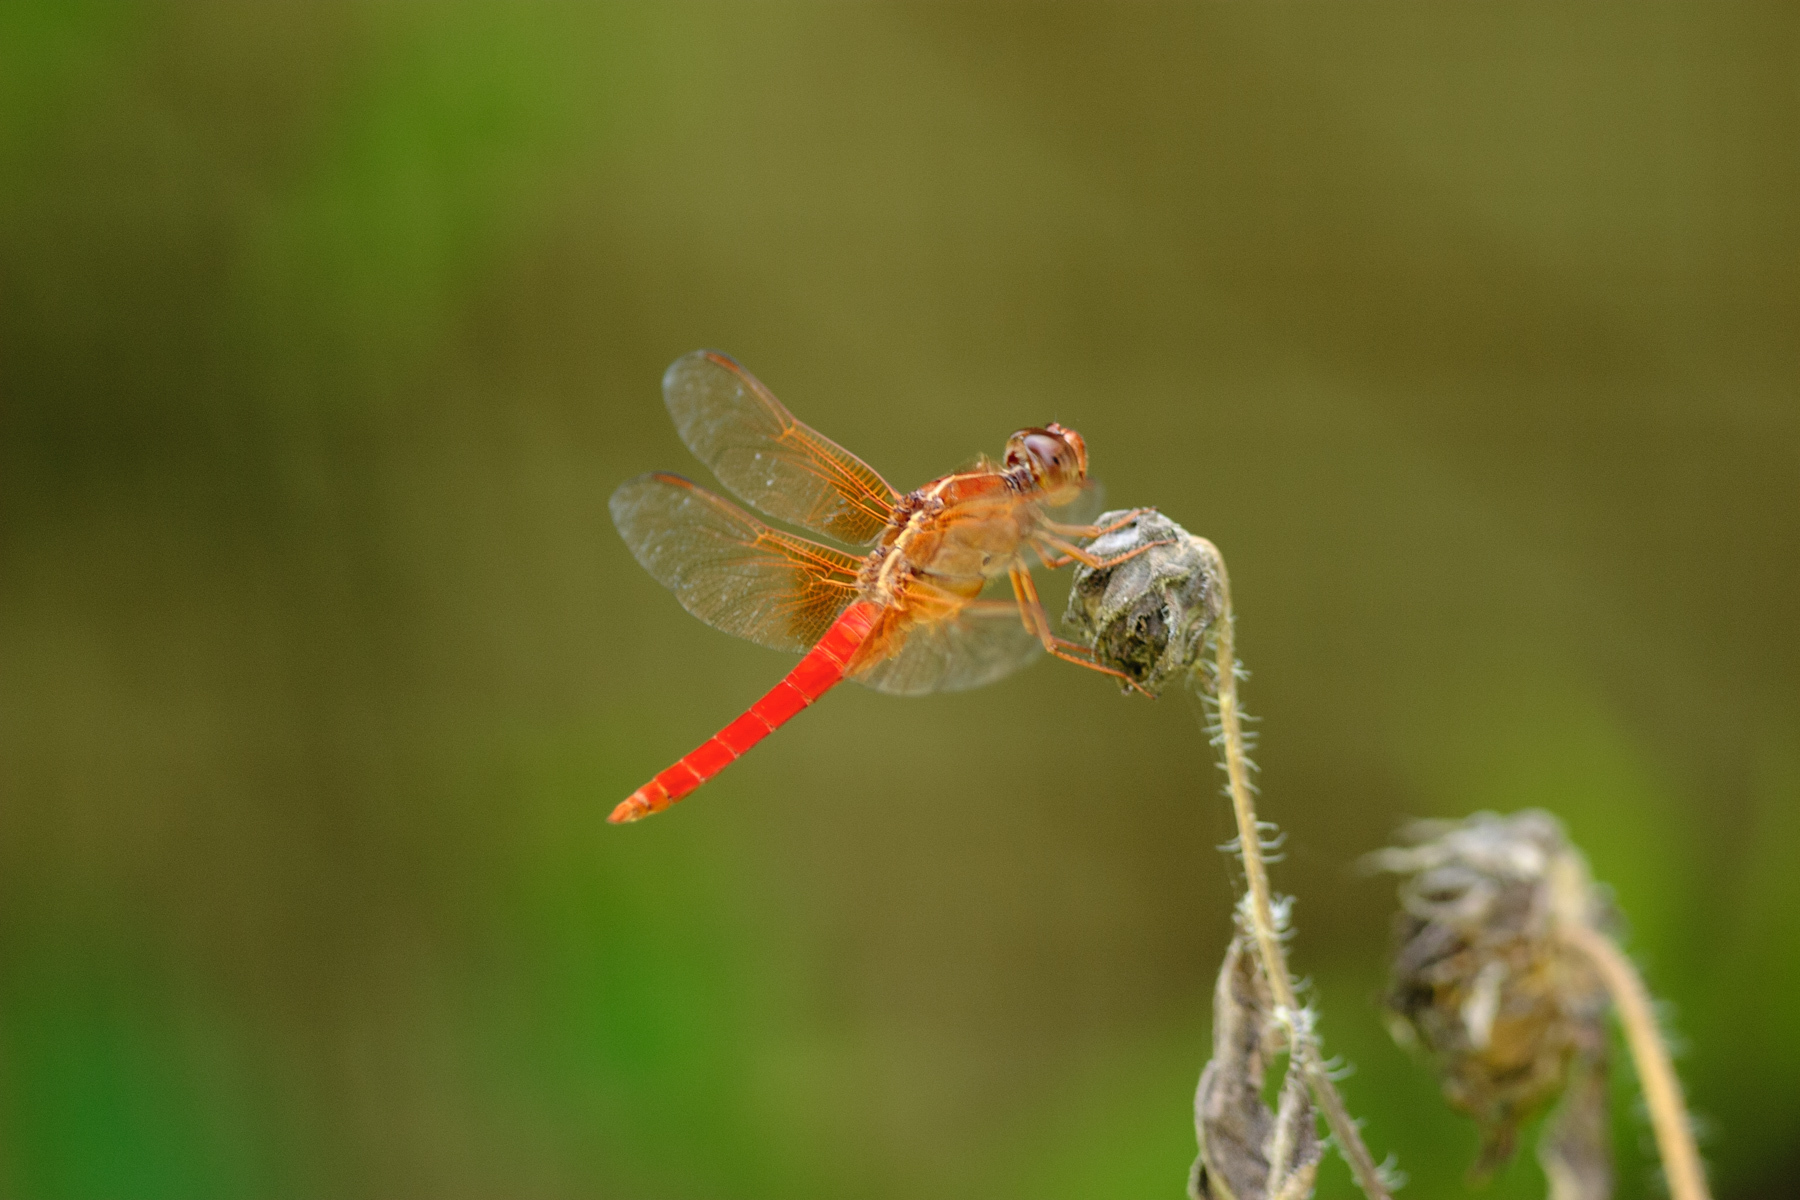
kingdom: Animalia
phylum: Arthropoda
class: Insecta
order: Odonata
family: Libellulidae
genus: Libellula
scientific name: Libellula croceipennis
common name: Neon skimmer
